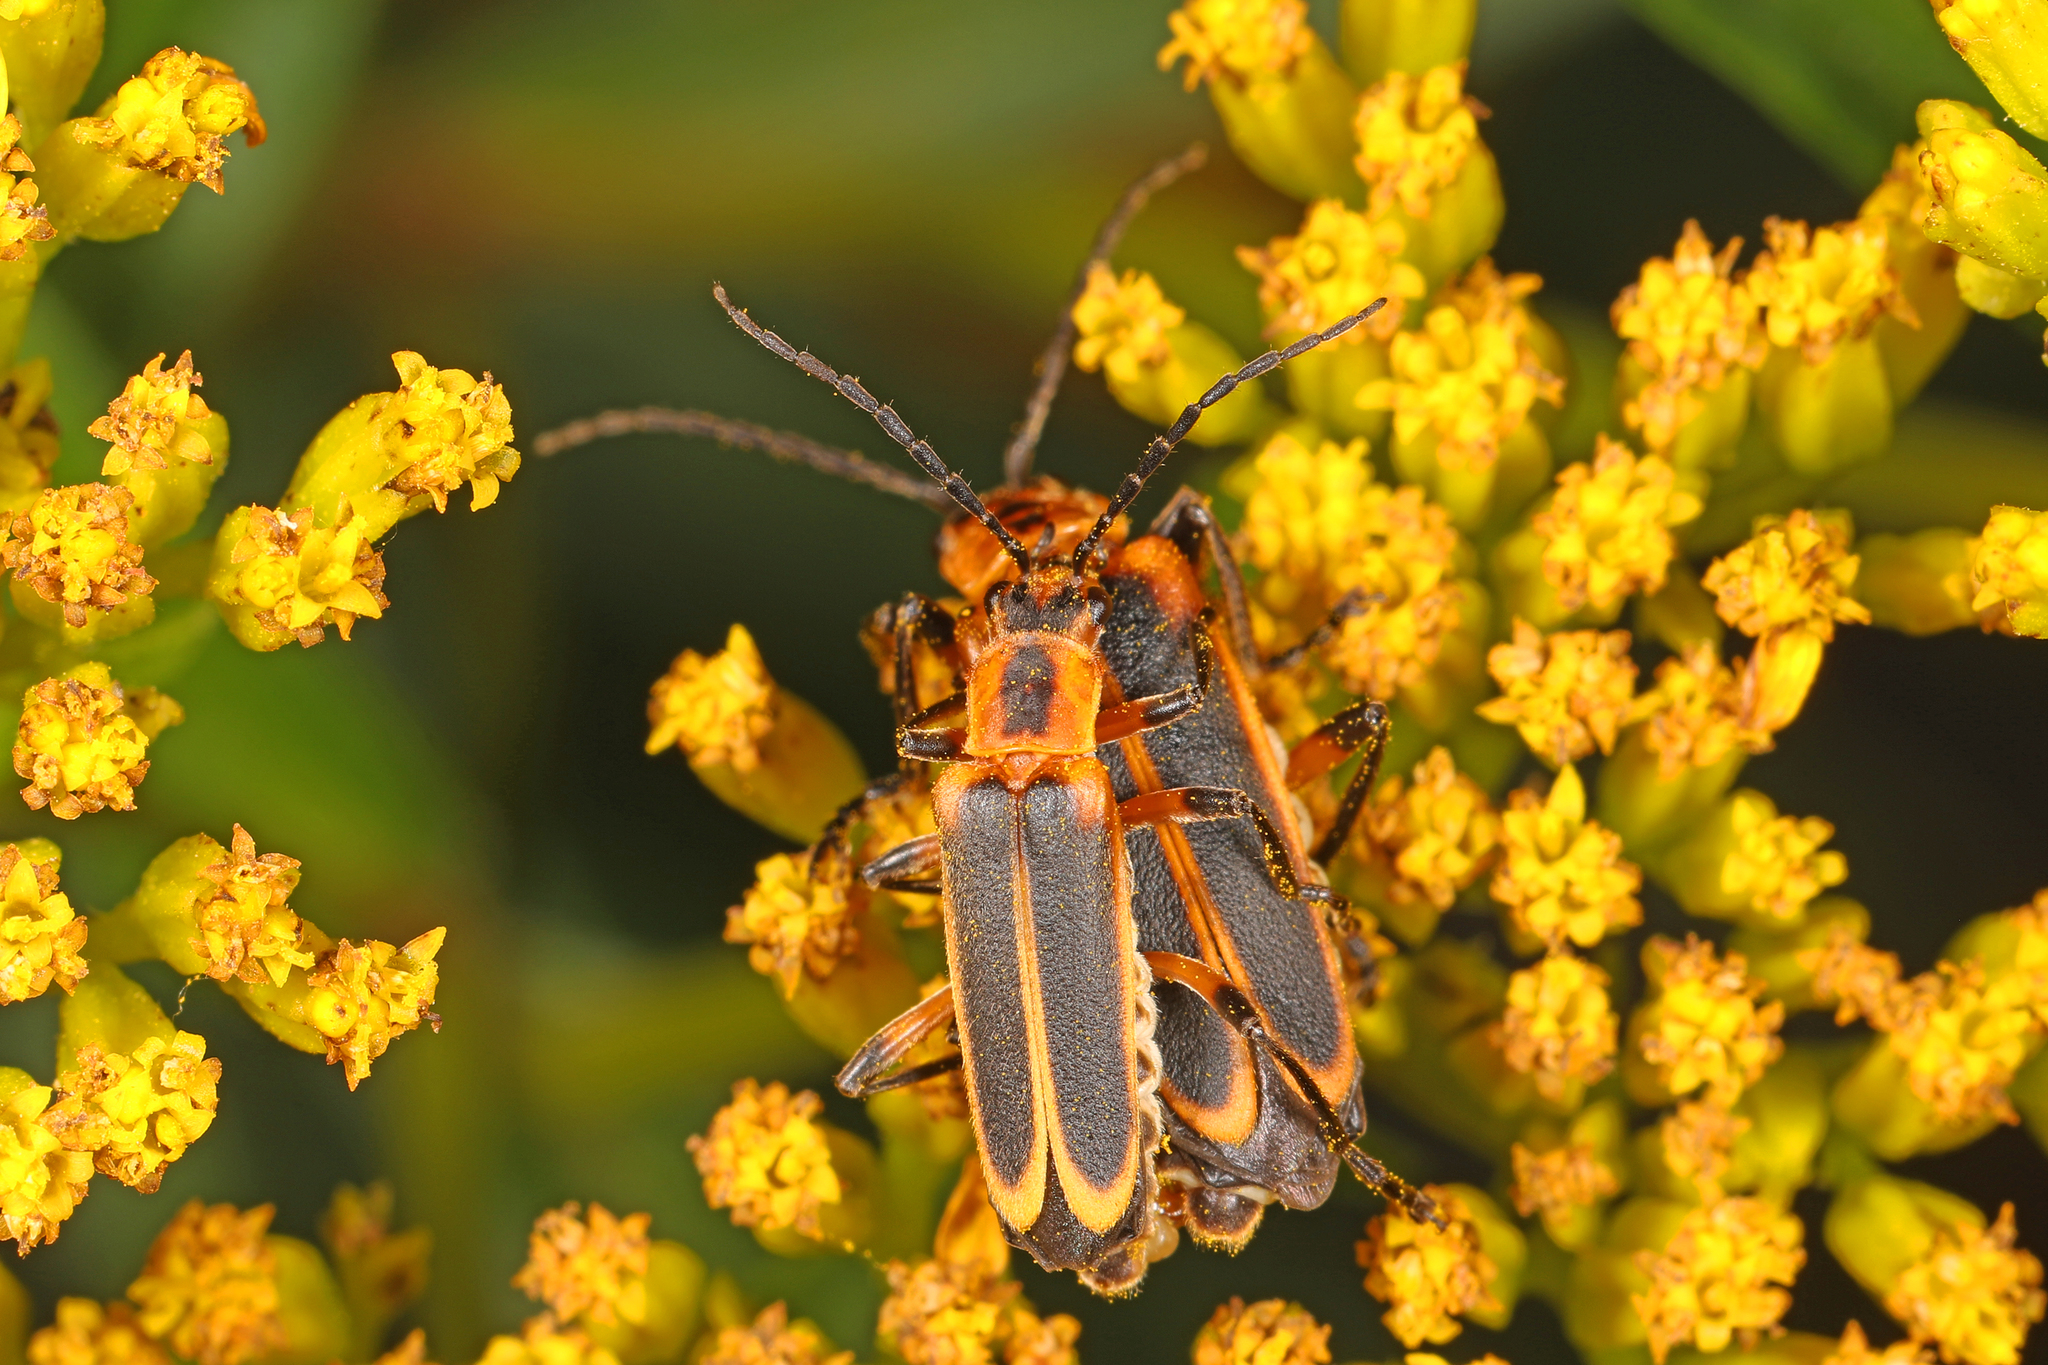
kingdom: Animalia
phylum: Arthropoda
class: Insecta
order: Coleoptera
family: Cantharidae
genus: Chauliognathus
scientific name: Chauliognathus marginatus
